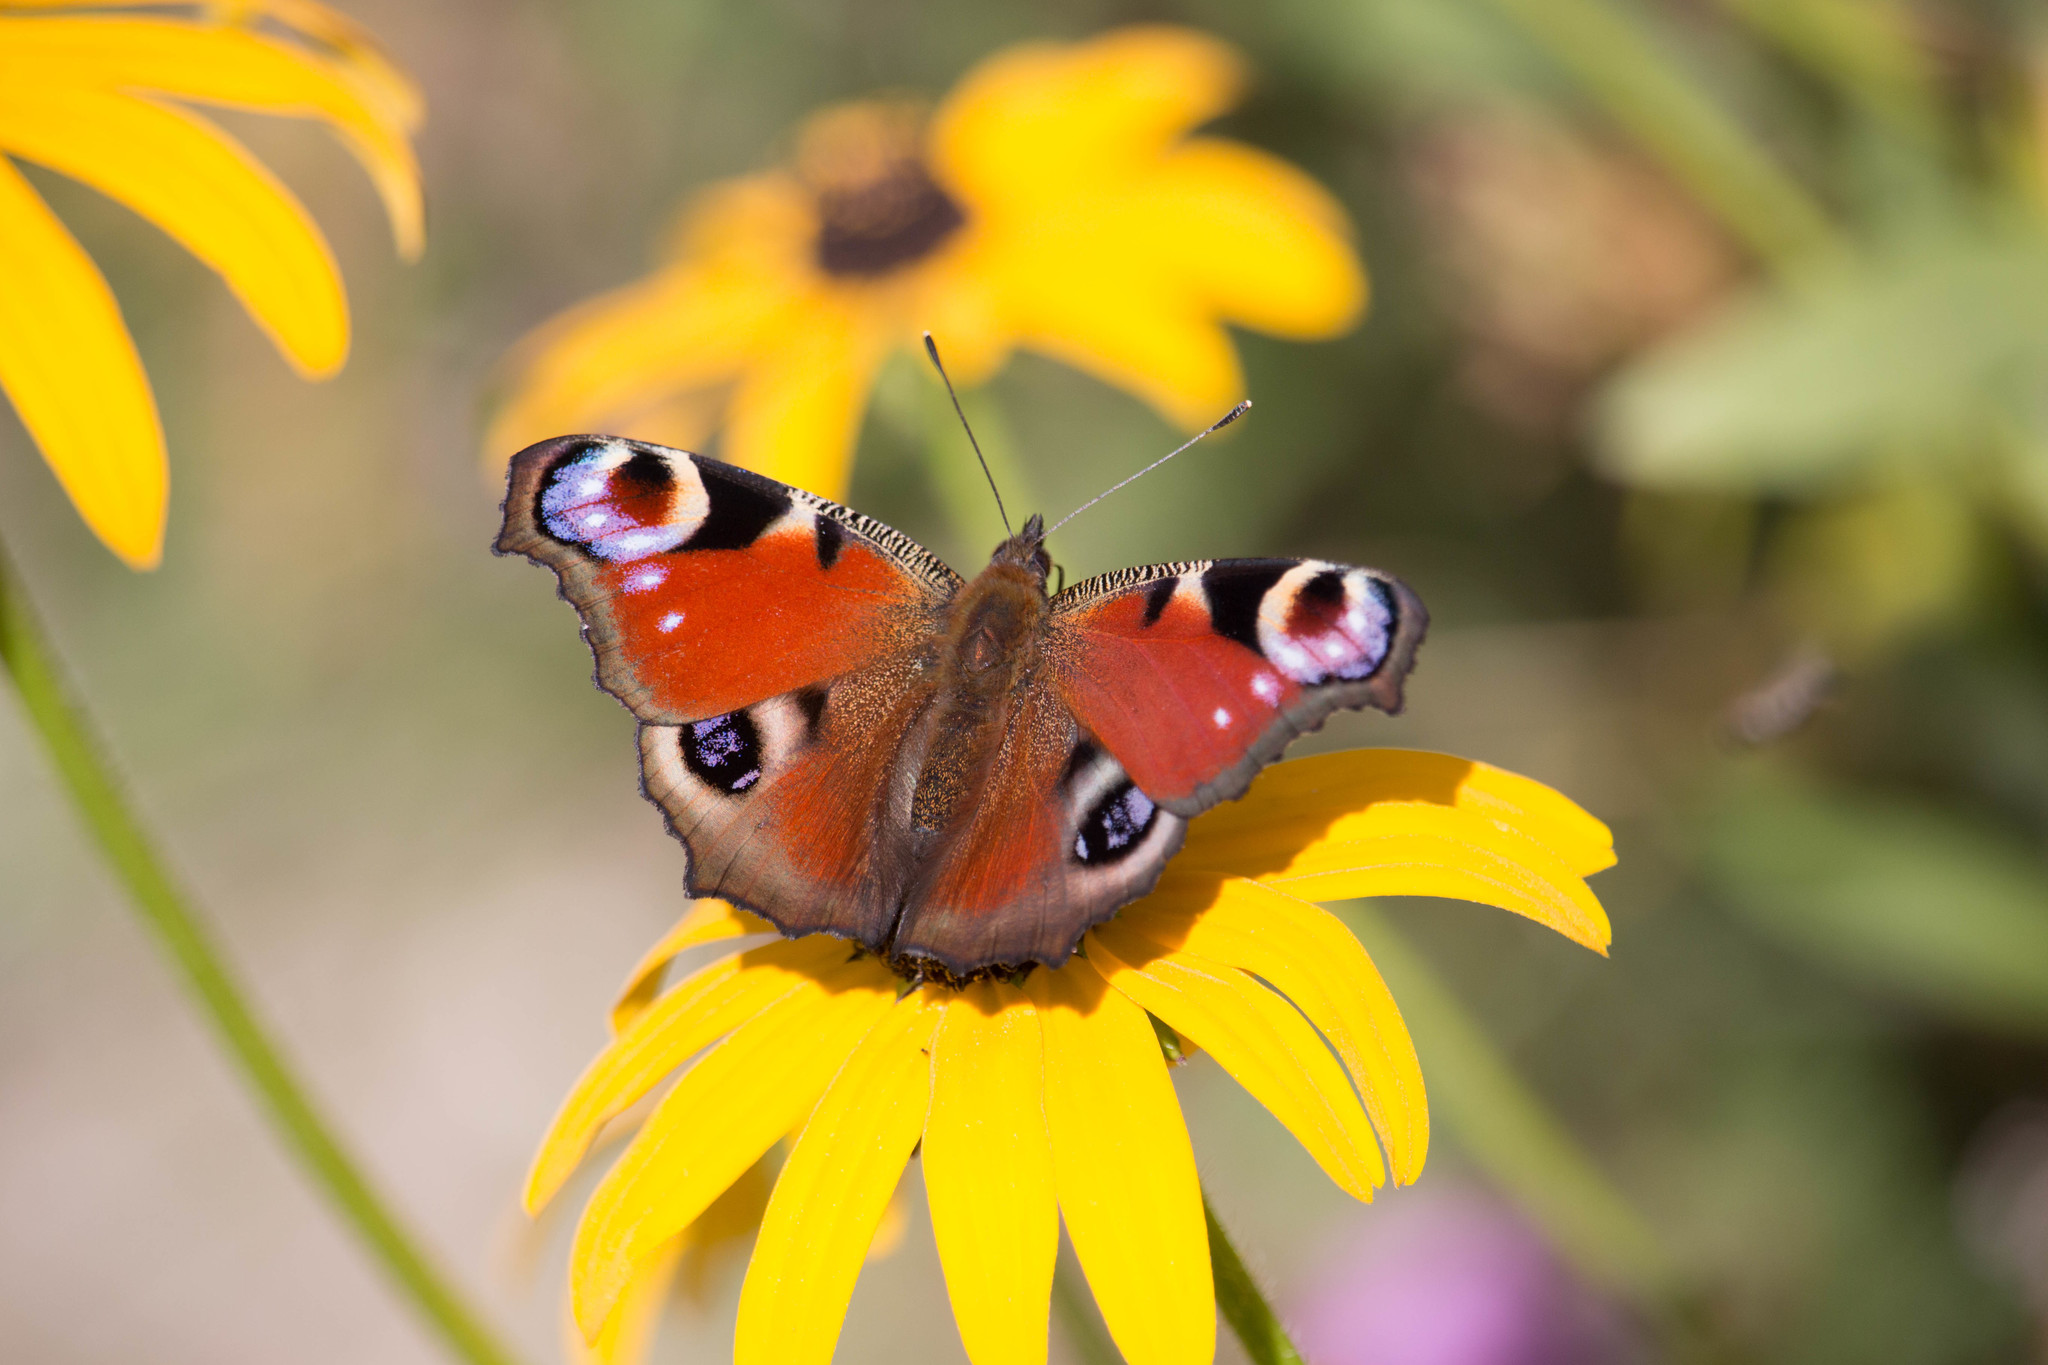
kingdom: Animalia
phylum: Arthropoda
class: Insecta
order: Lepidoptera
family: Nymphalidae
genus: Aglais
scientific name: Aglais io
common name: Peacock
